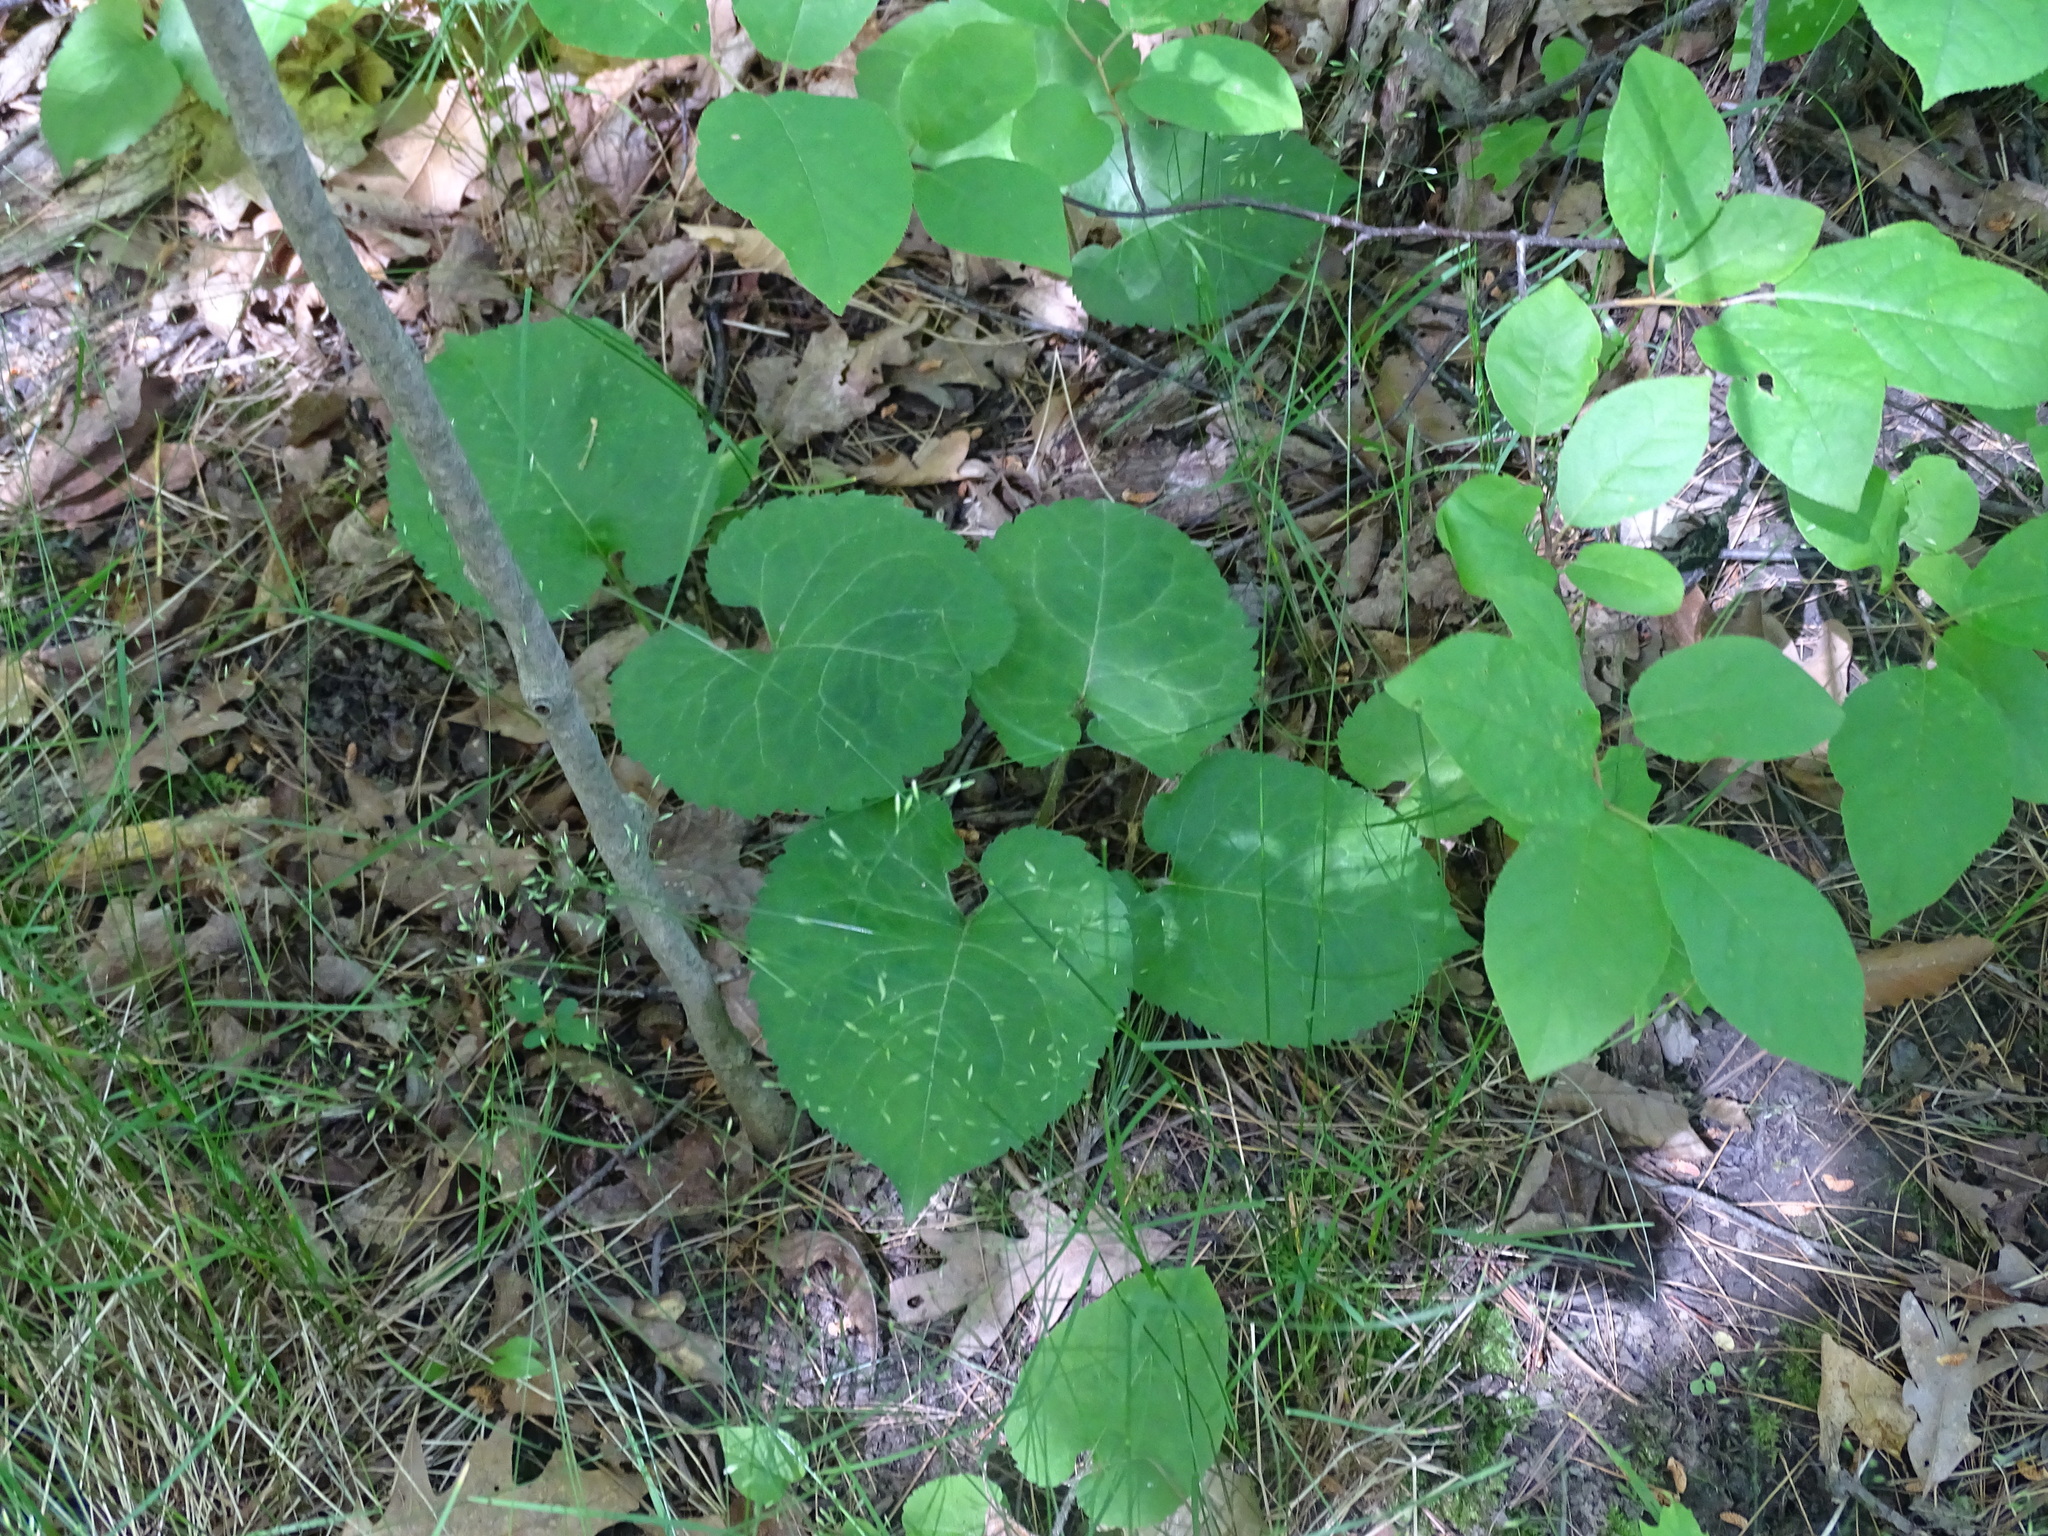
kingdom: Plantae
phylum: Tracheophyta
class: Magnoliopsida
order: Asterales
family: Asteraceae
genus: Eurybia
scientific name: Eurybia macrophylla
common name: Big-leaved aster
